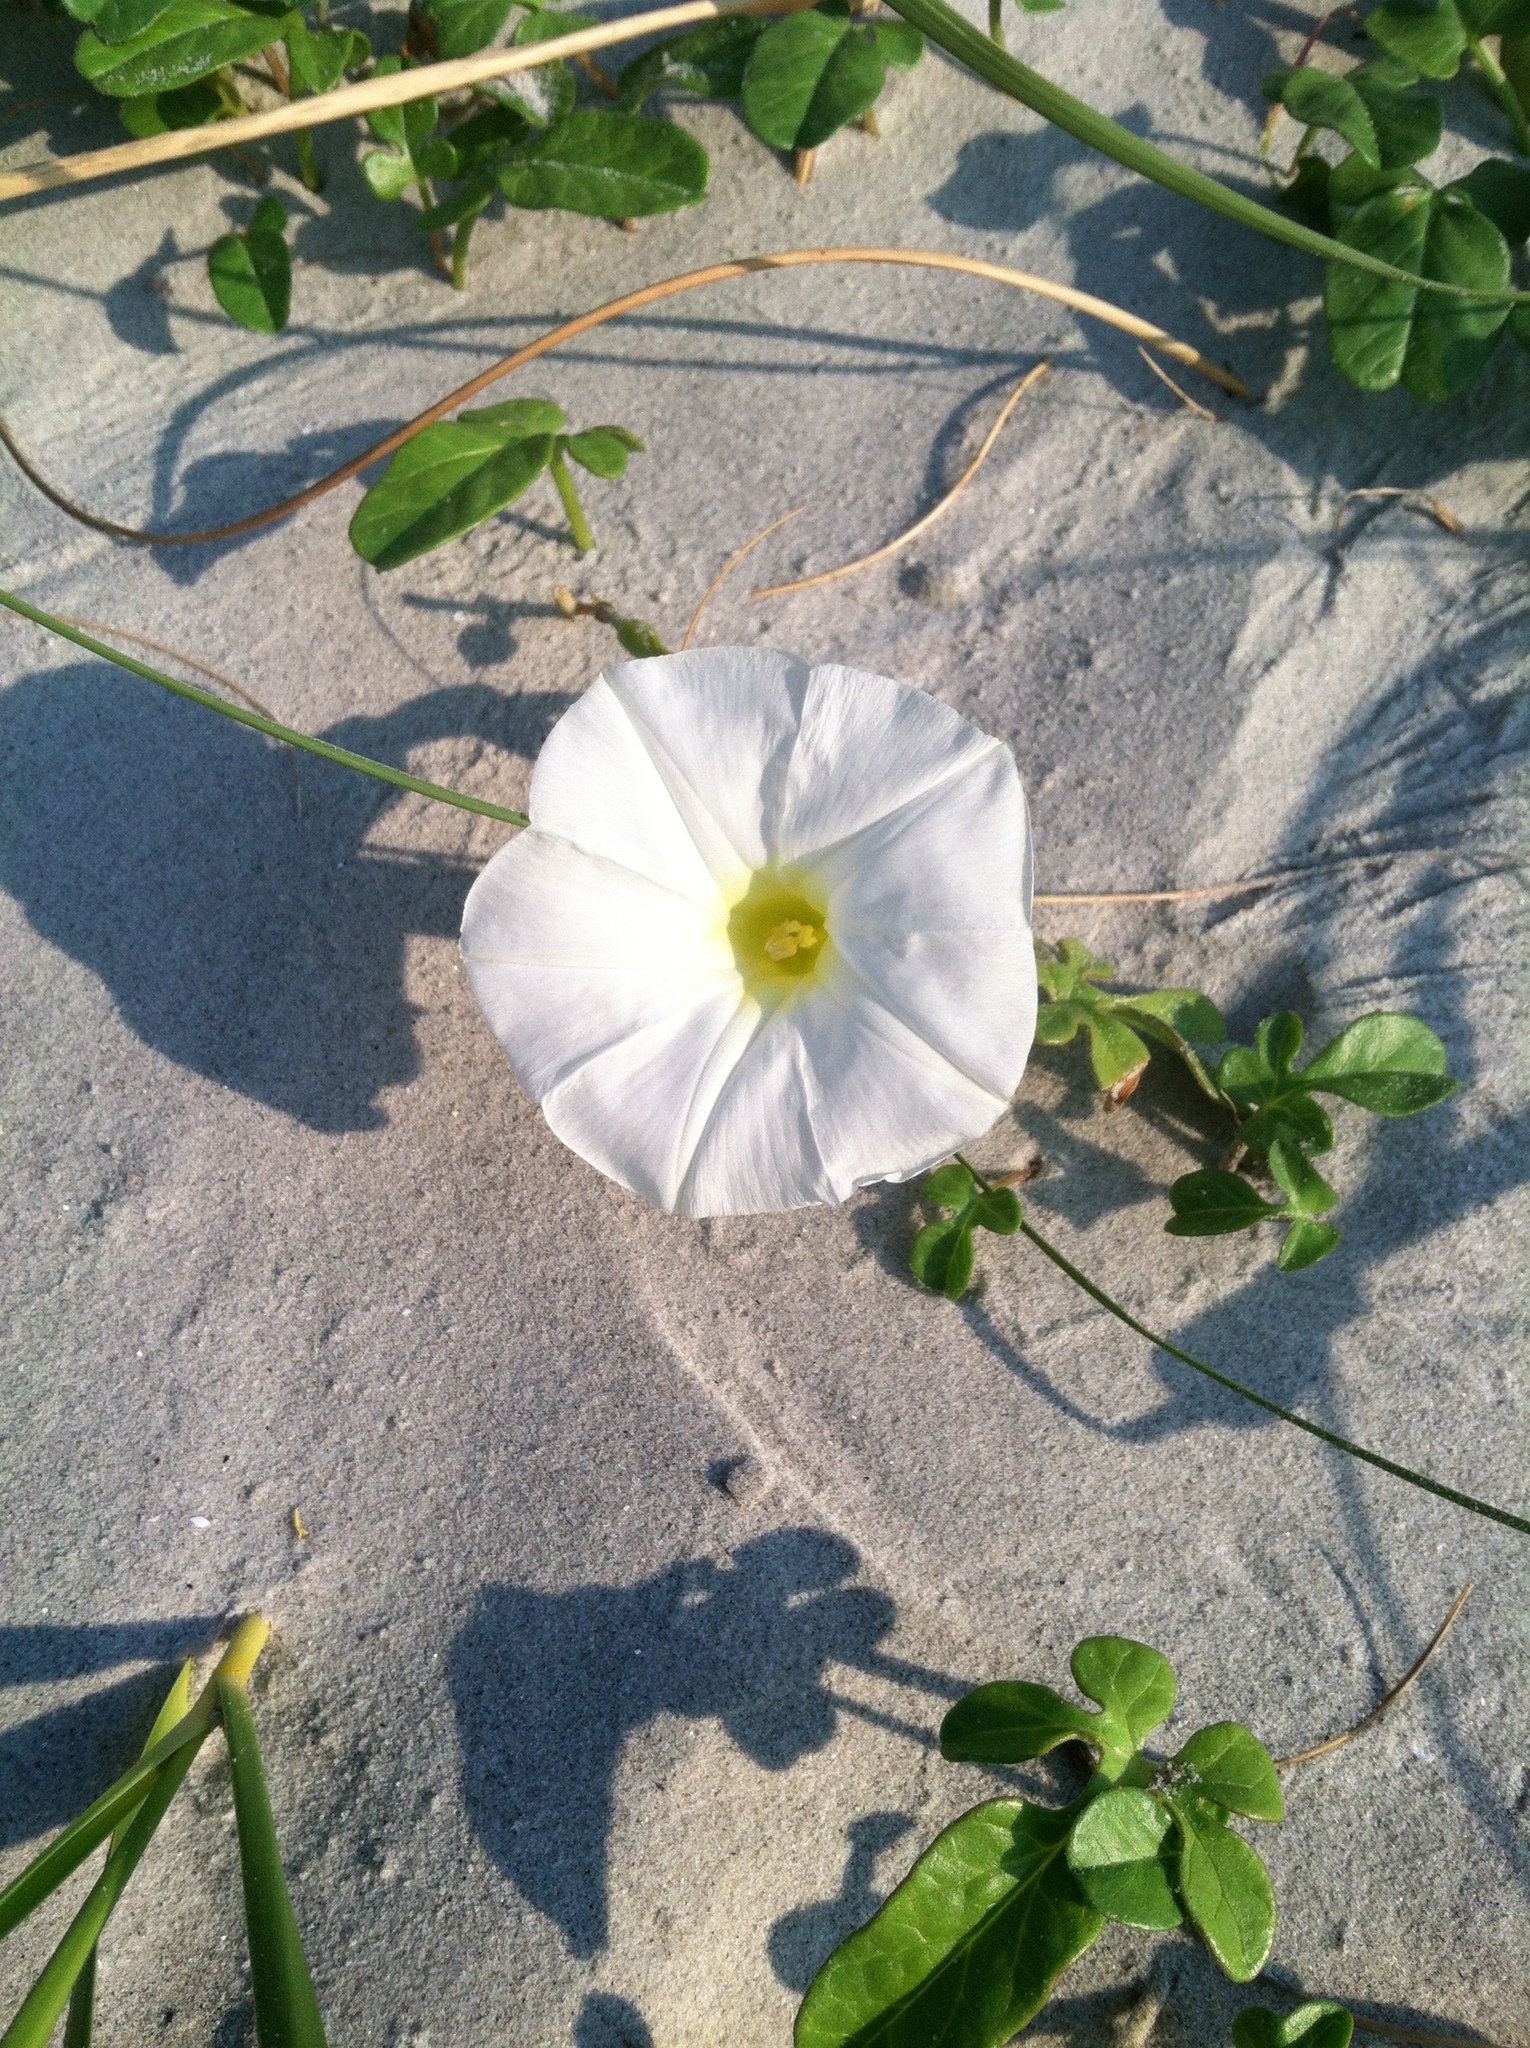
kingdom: Plantae
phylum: Tracheophyta
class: Magnoliopsida
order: Solanales
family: Convolvulaceae
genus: Ipomoea
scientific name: Ipomoea imperati
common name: Fiddle-leaf morning-glory
